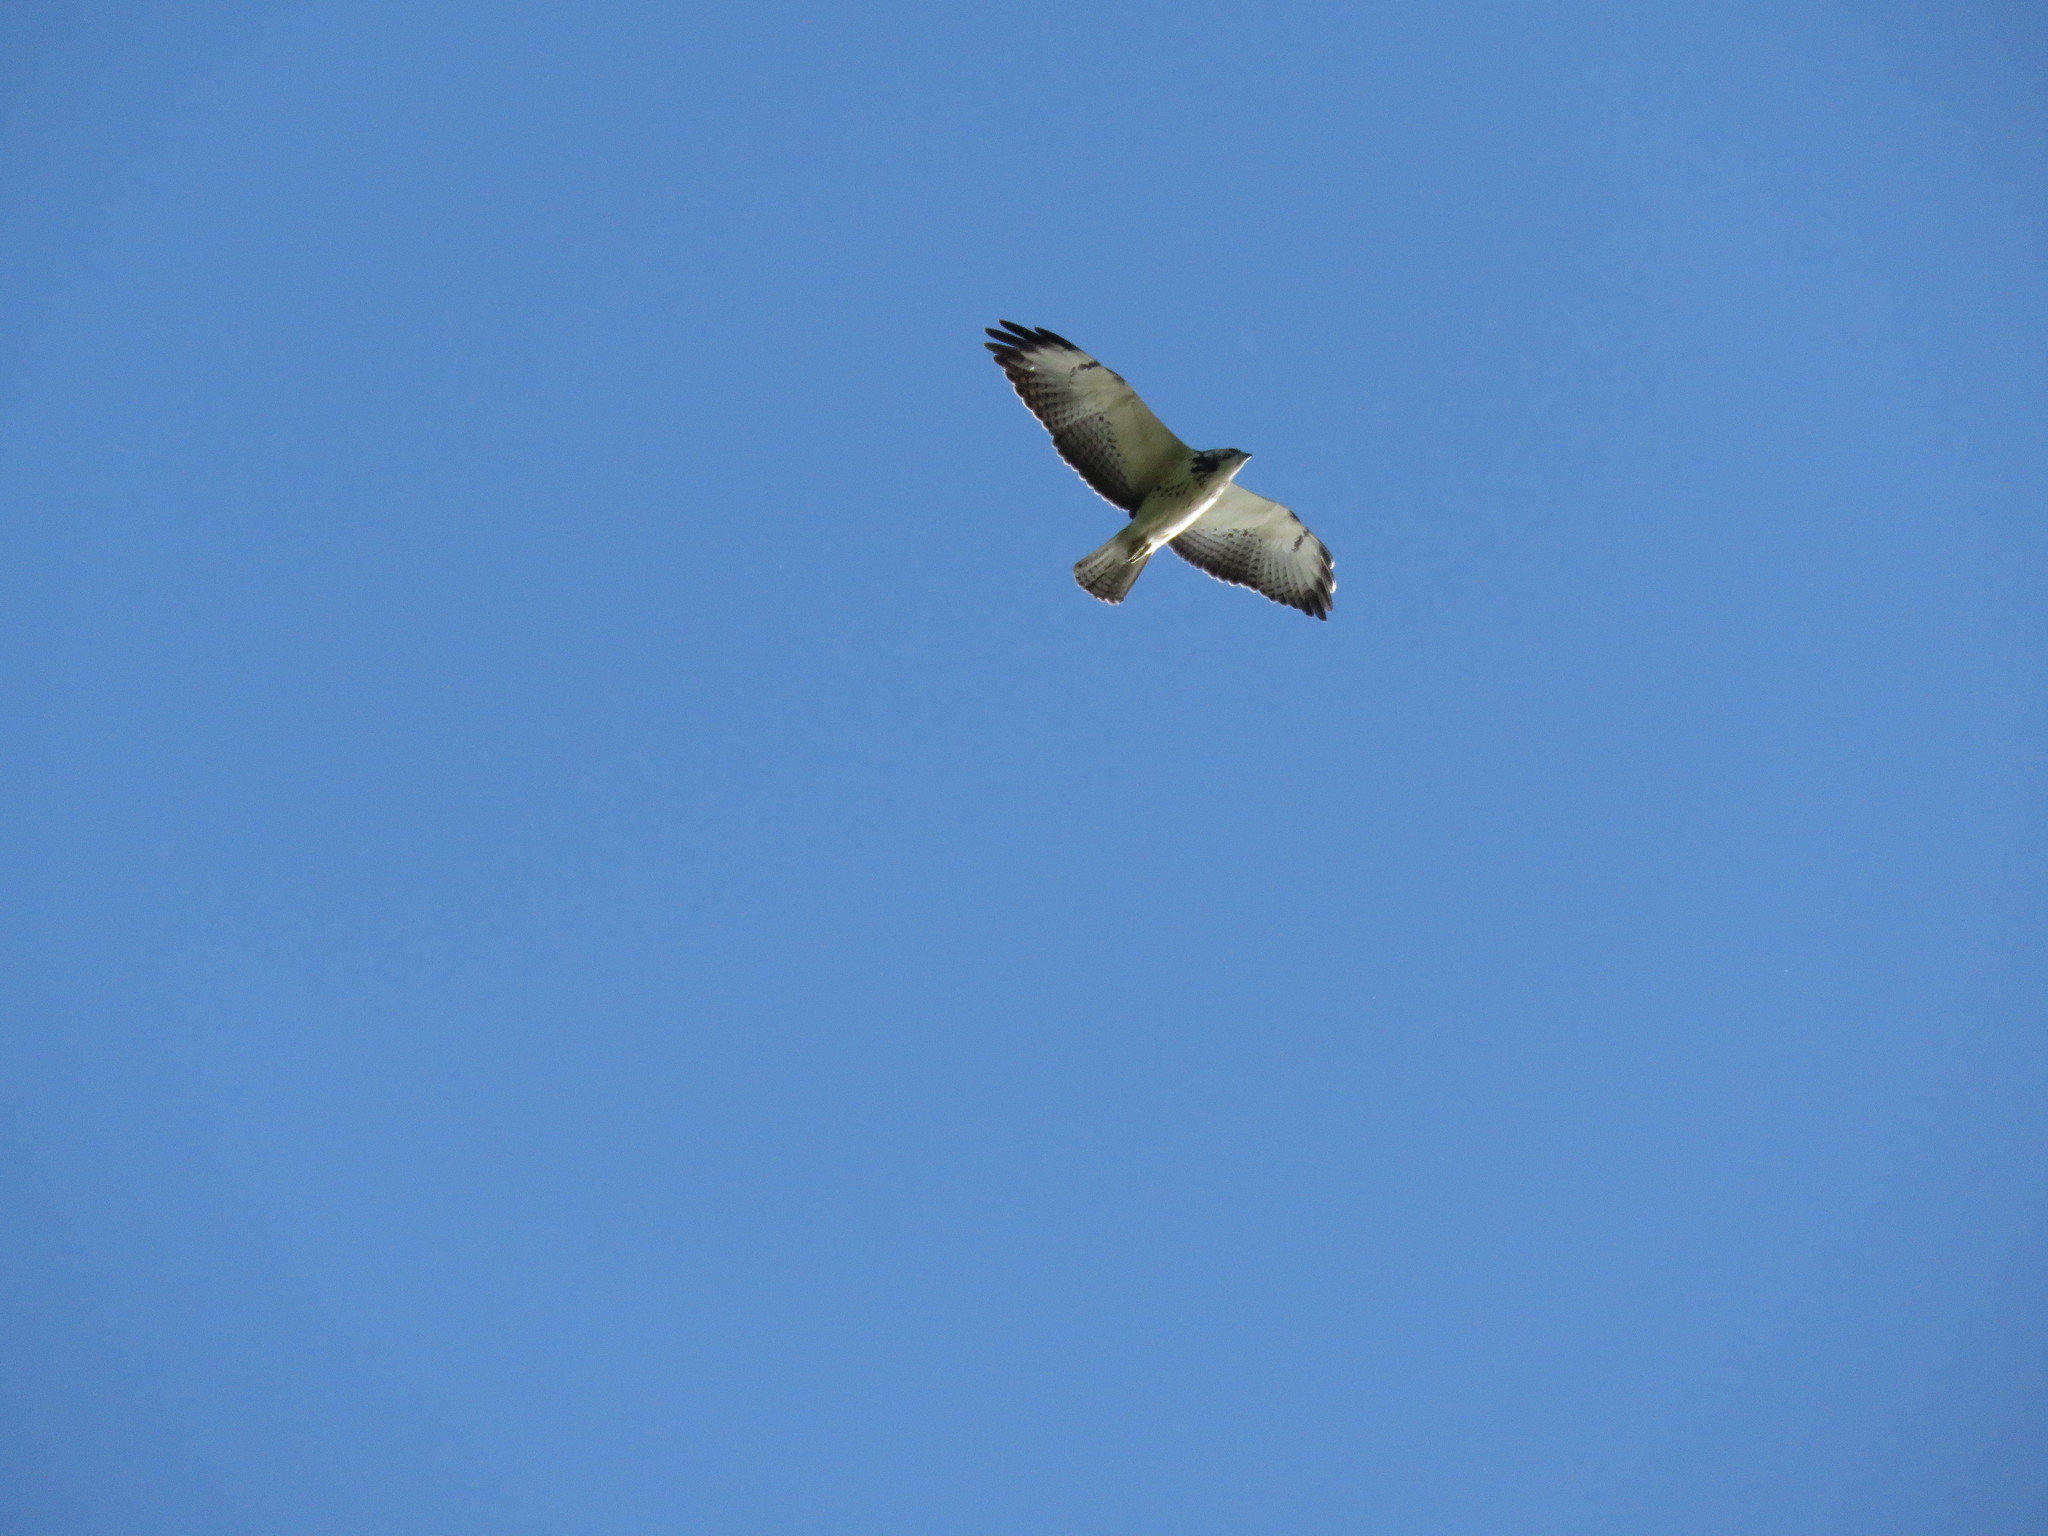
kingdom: Animalia
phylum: Chordata
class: Aves
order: Accipitriformes
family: Accipitridae
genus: Buteo
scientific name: Buteo swainsoni
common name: Swainson's hawk
